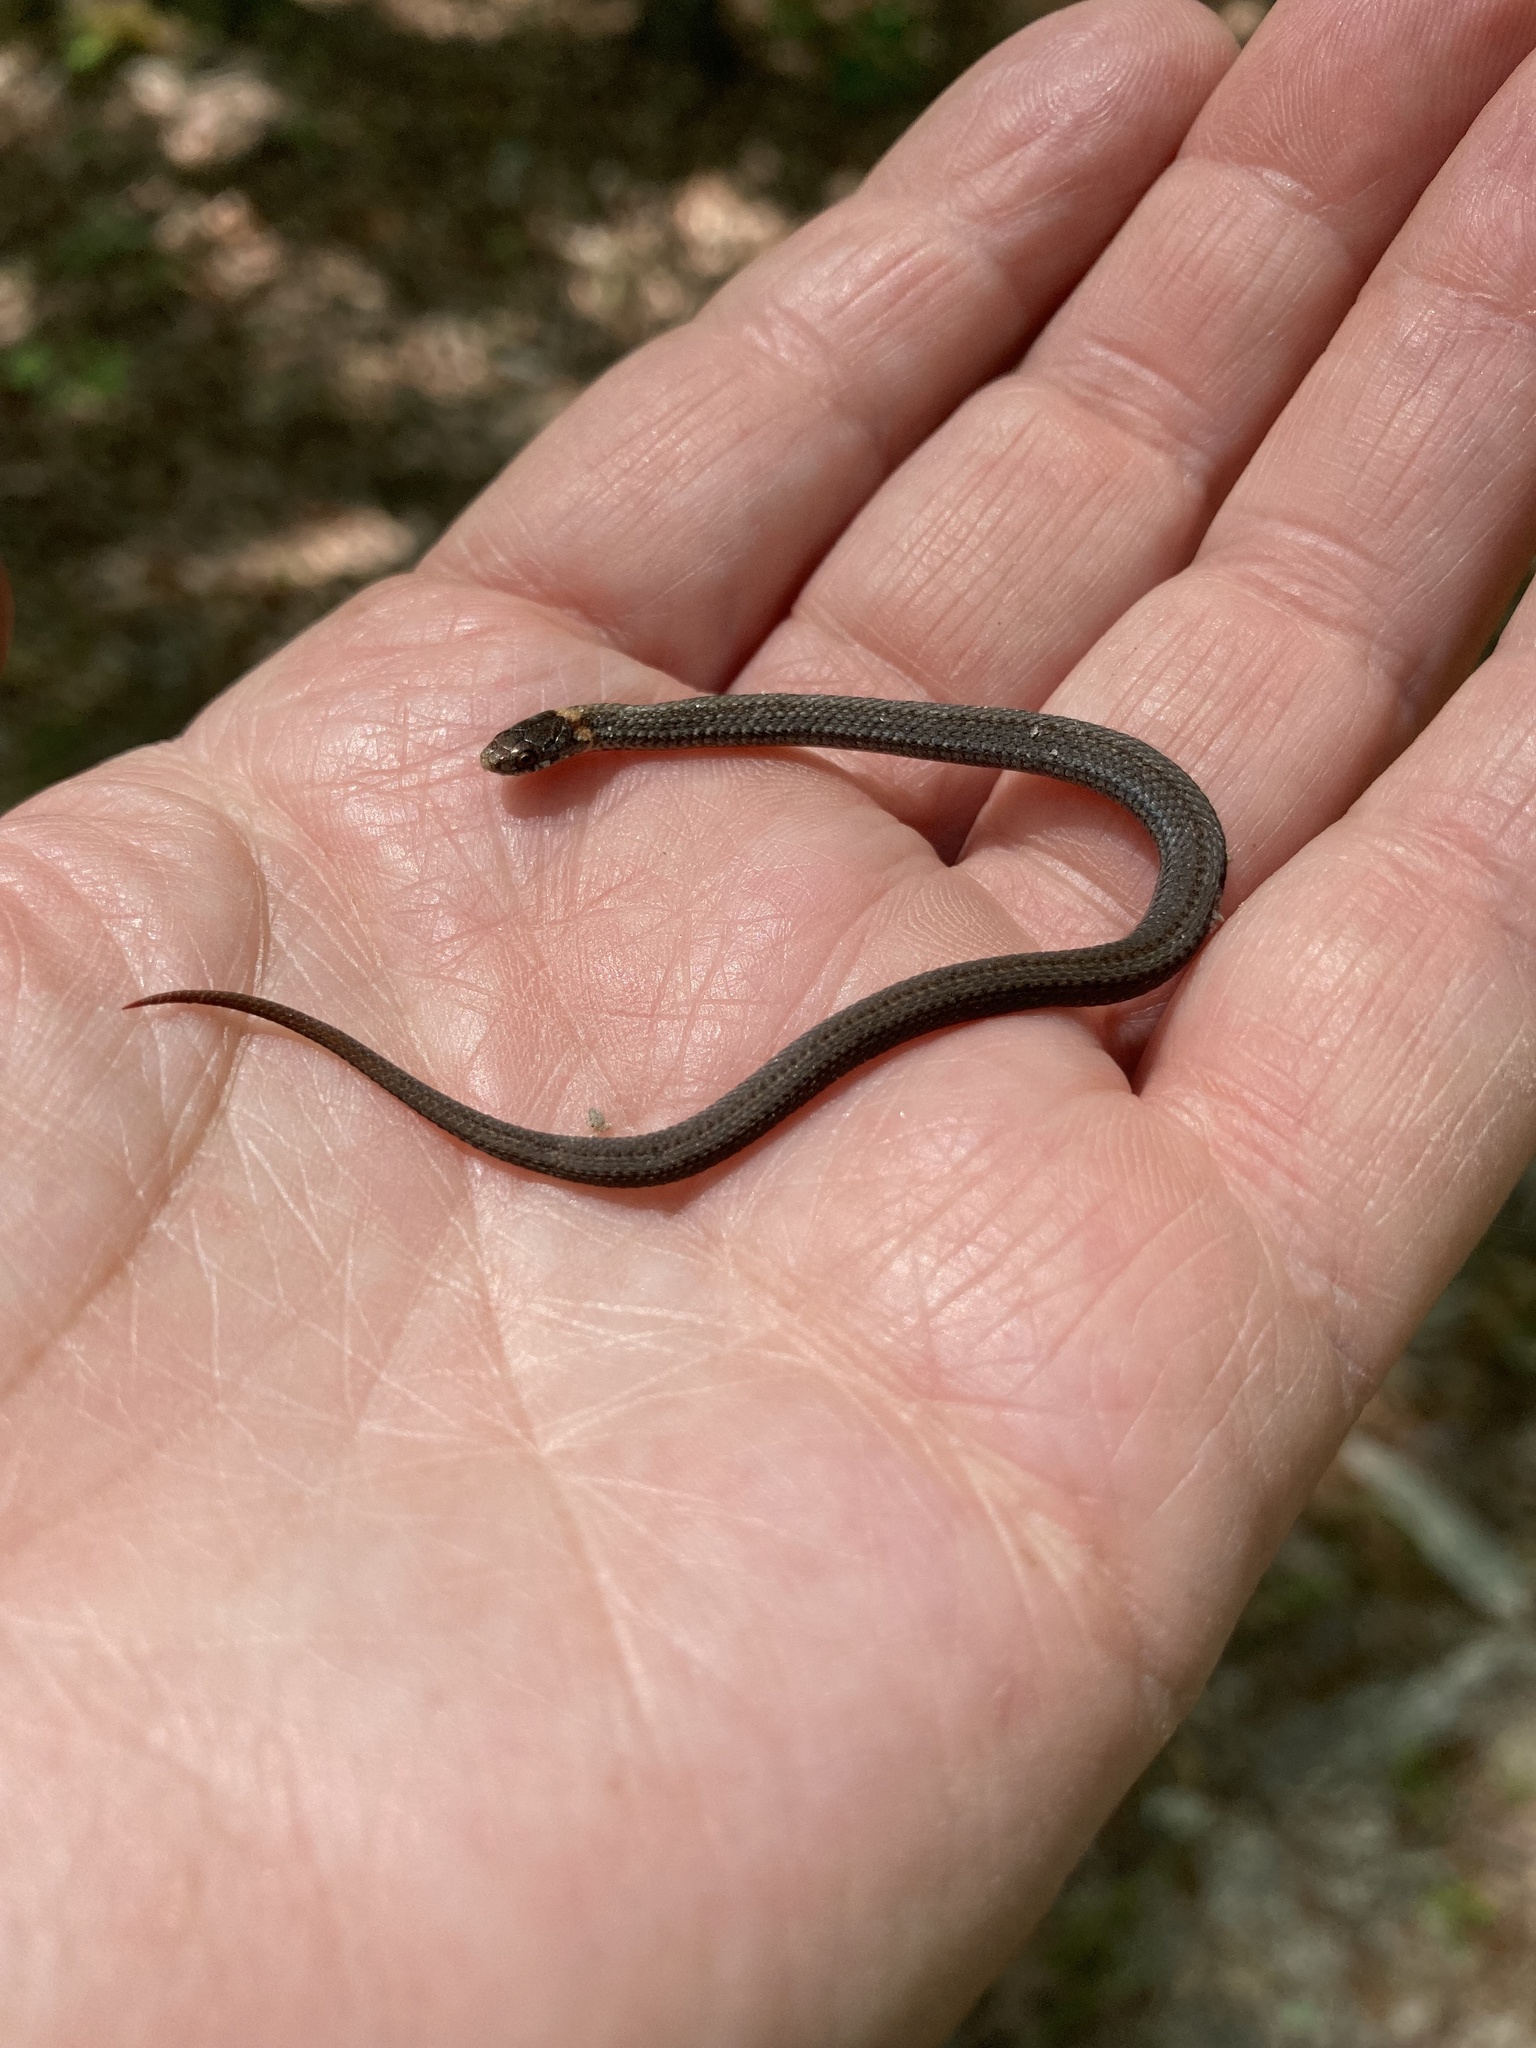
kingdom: Animalia
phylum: Chordata
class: Squamata
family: Colubridae
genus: Storeria
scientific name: Storeria occipitomaculata
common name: Redbelly snake
